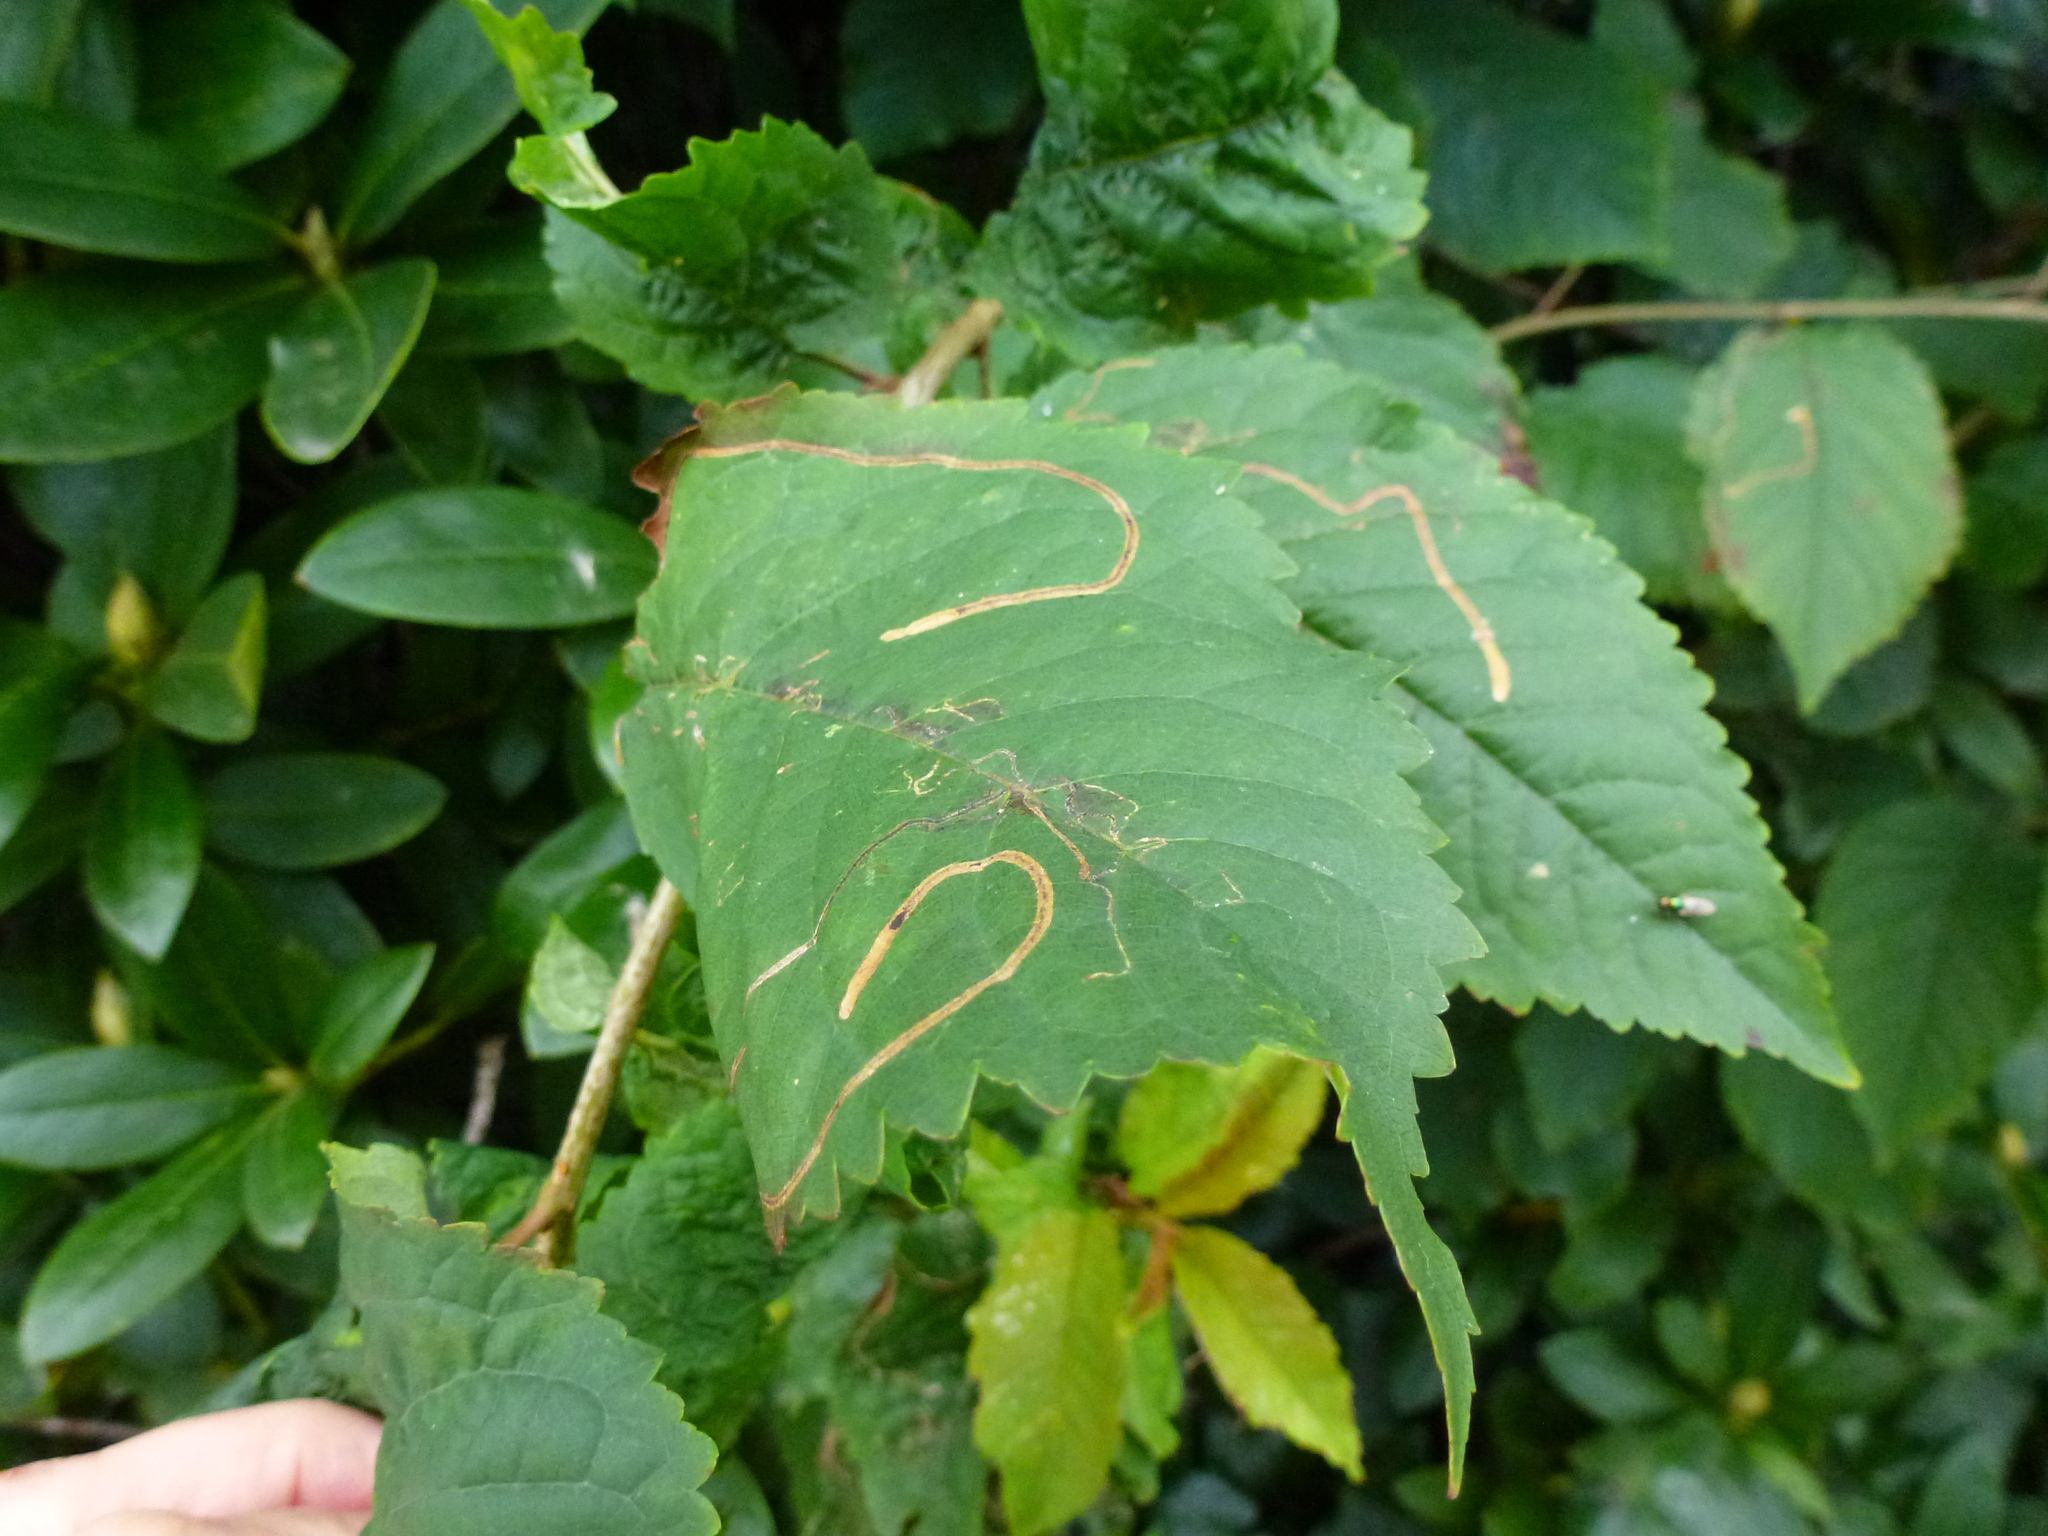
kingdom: Animalia
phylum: Arthropoda
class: Insecta
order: Lepidoptera
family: Lyonetiidae
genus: Lyonetia
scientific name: Lyonetia clerkella
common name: Apple leaf miner
